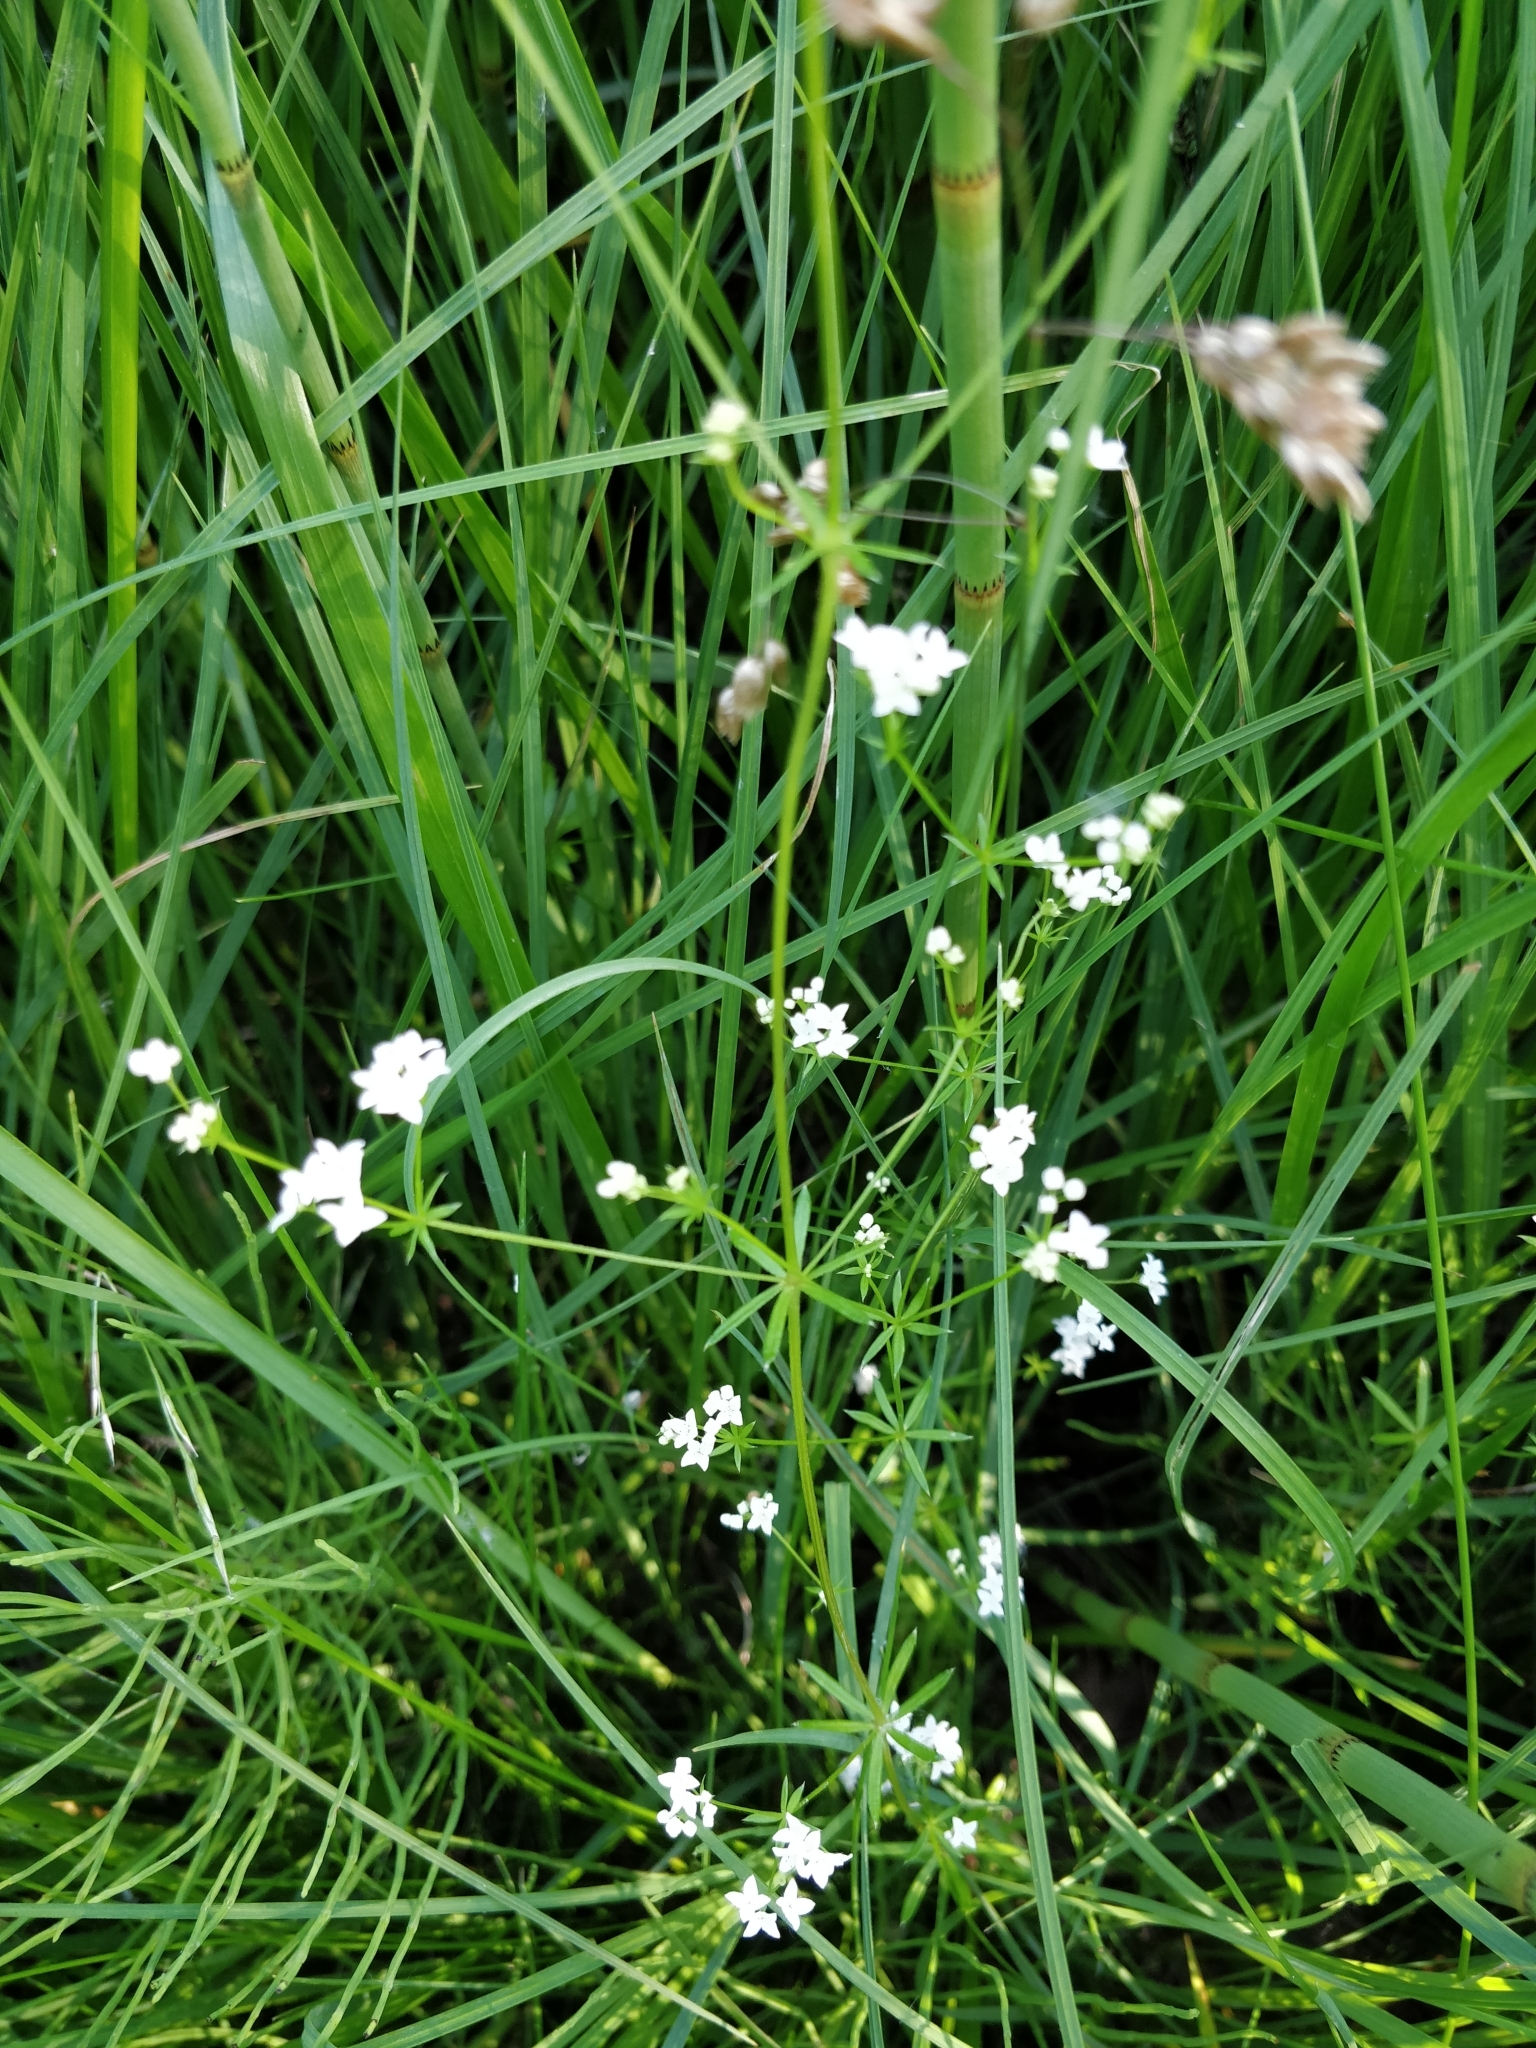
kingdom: Plantae
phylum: Tracheophyta
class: Magnoliopsida
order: Gentianales
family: Rubiaceae
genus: Galium
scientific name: Galium uliginosum
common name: Fen bedstraw
